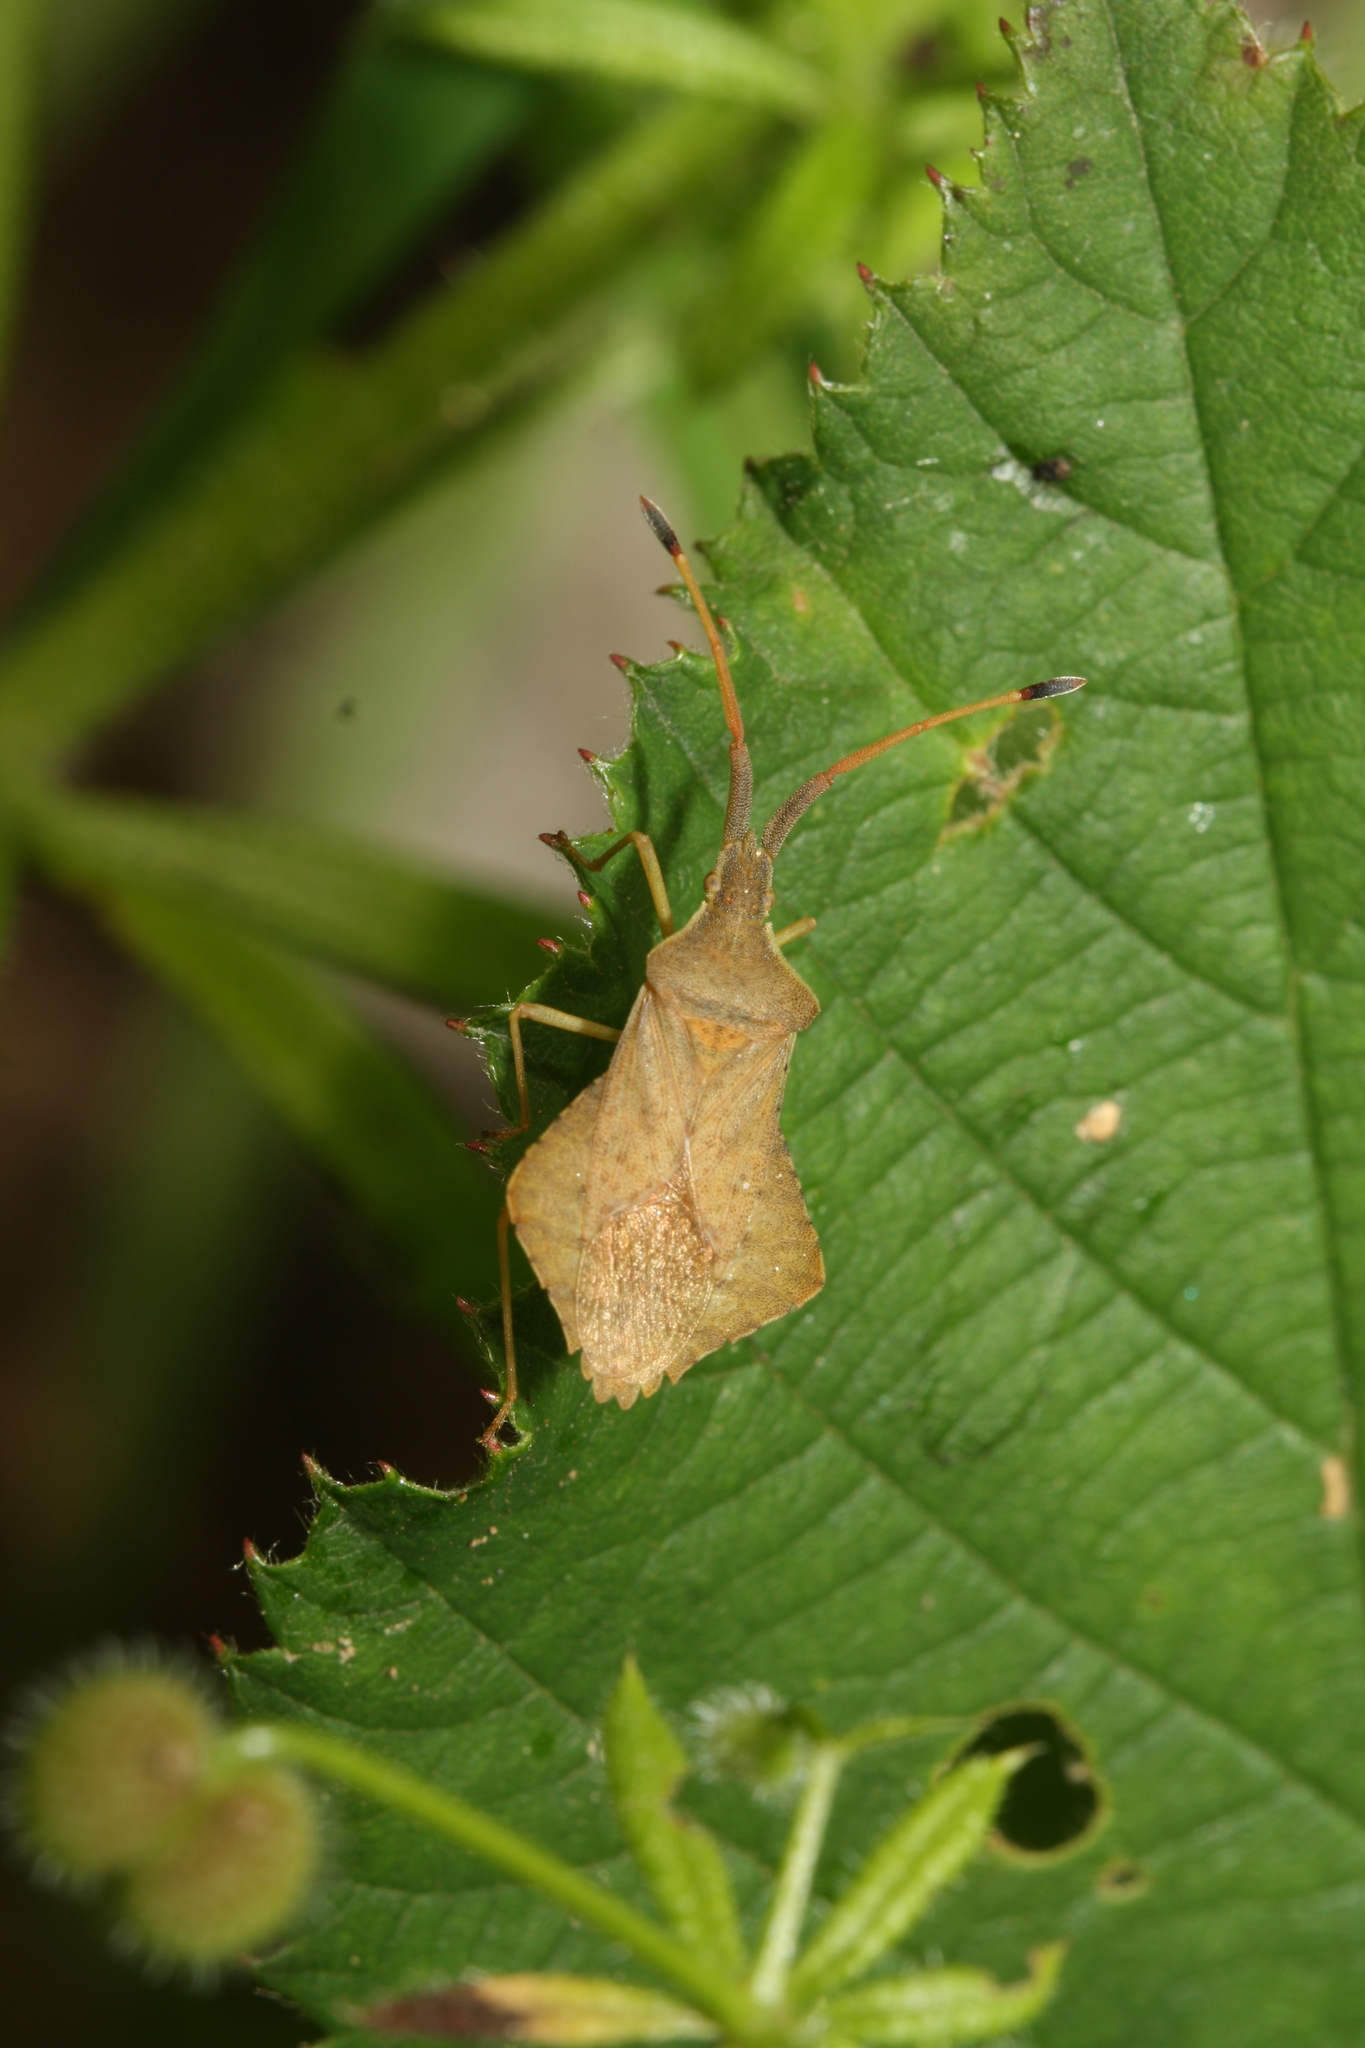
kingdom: Animalia
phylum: Arthropoda
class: Insecta
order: Hemiptera
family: Coreidae
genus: Syromastus
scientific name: Syromastus rhombeus
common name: Rhombic leatherbug
